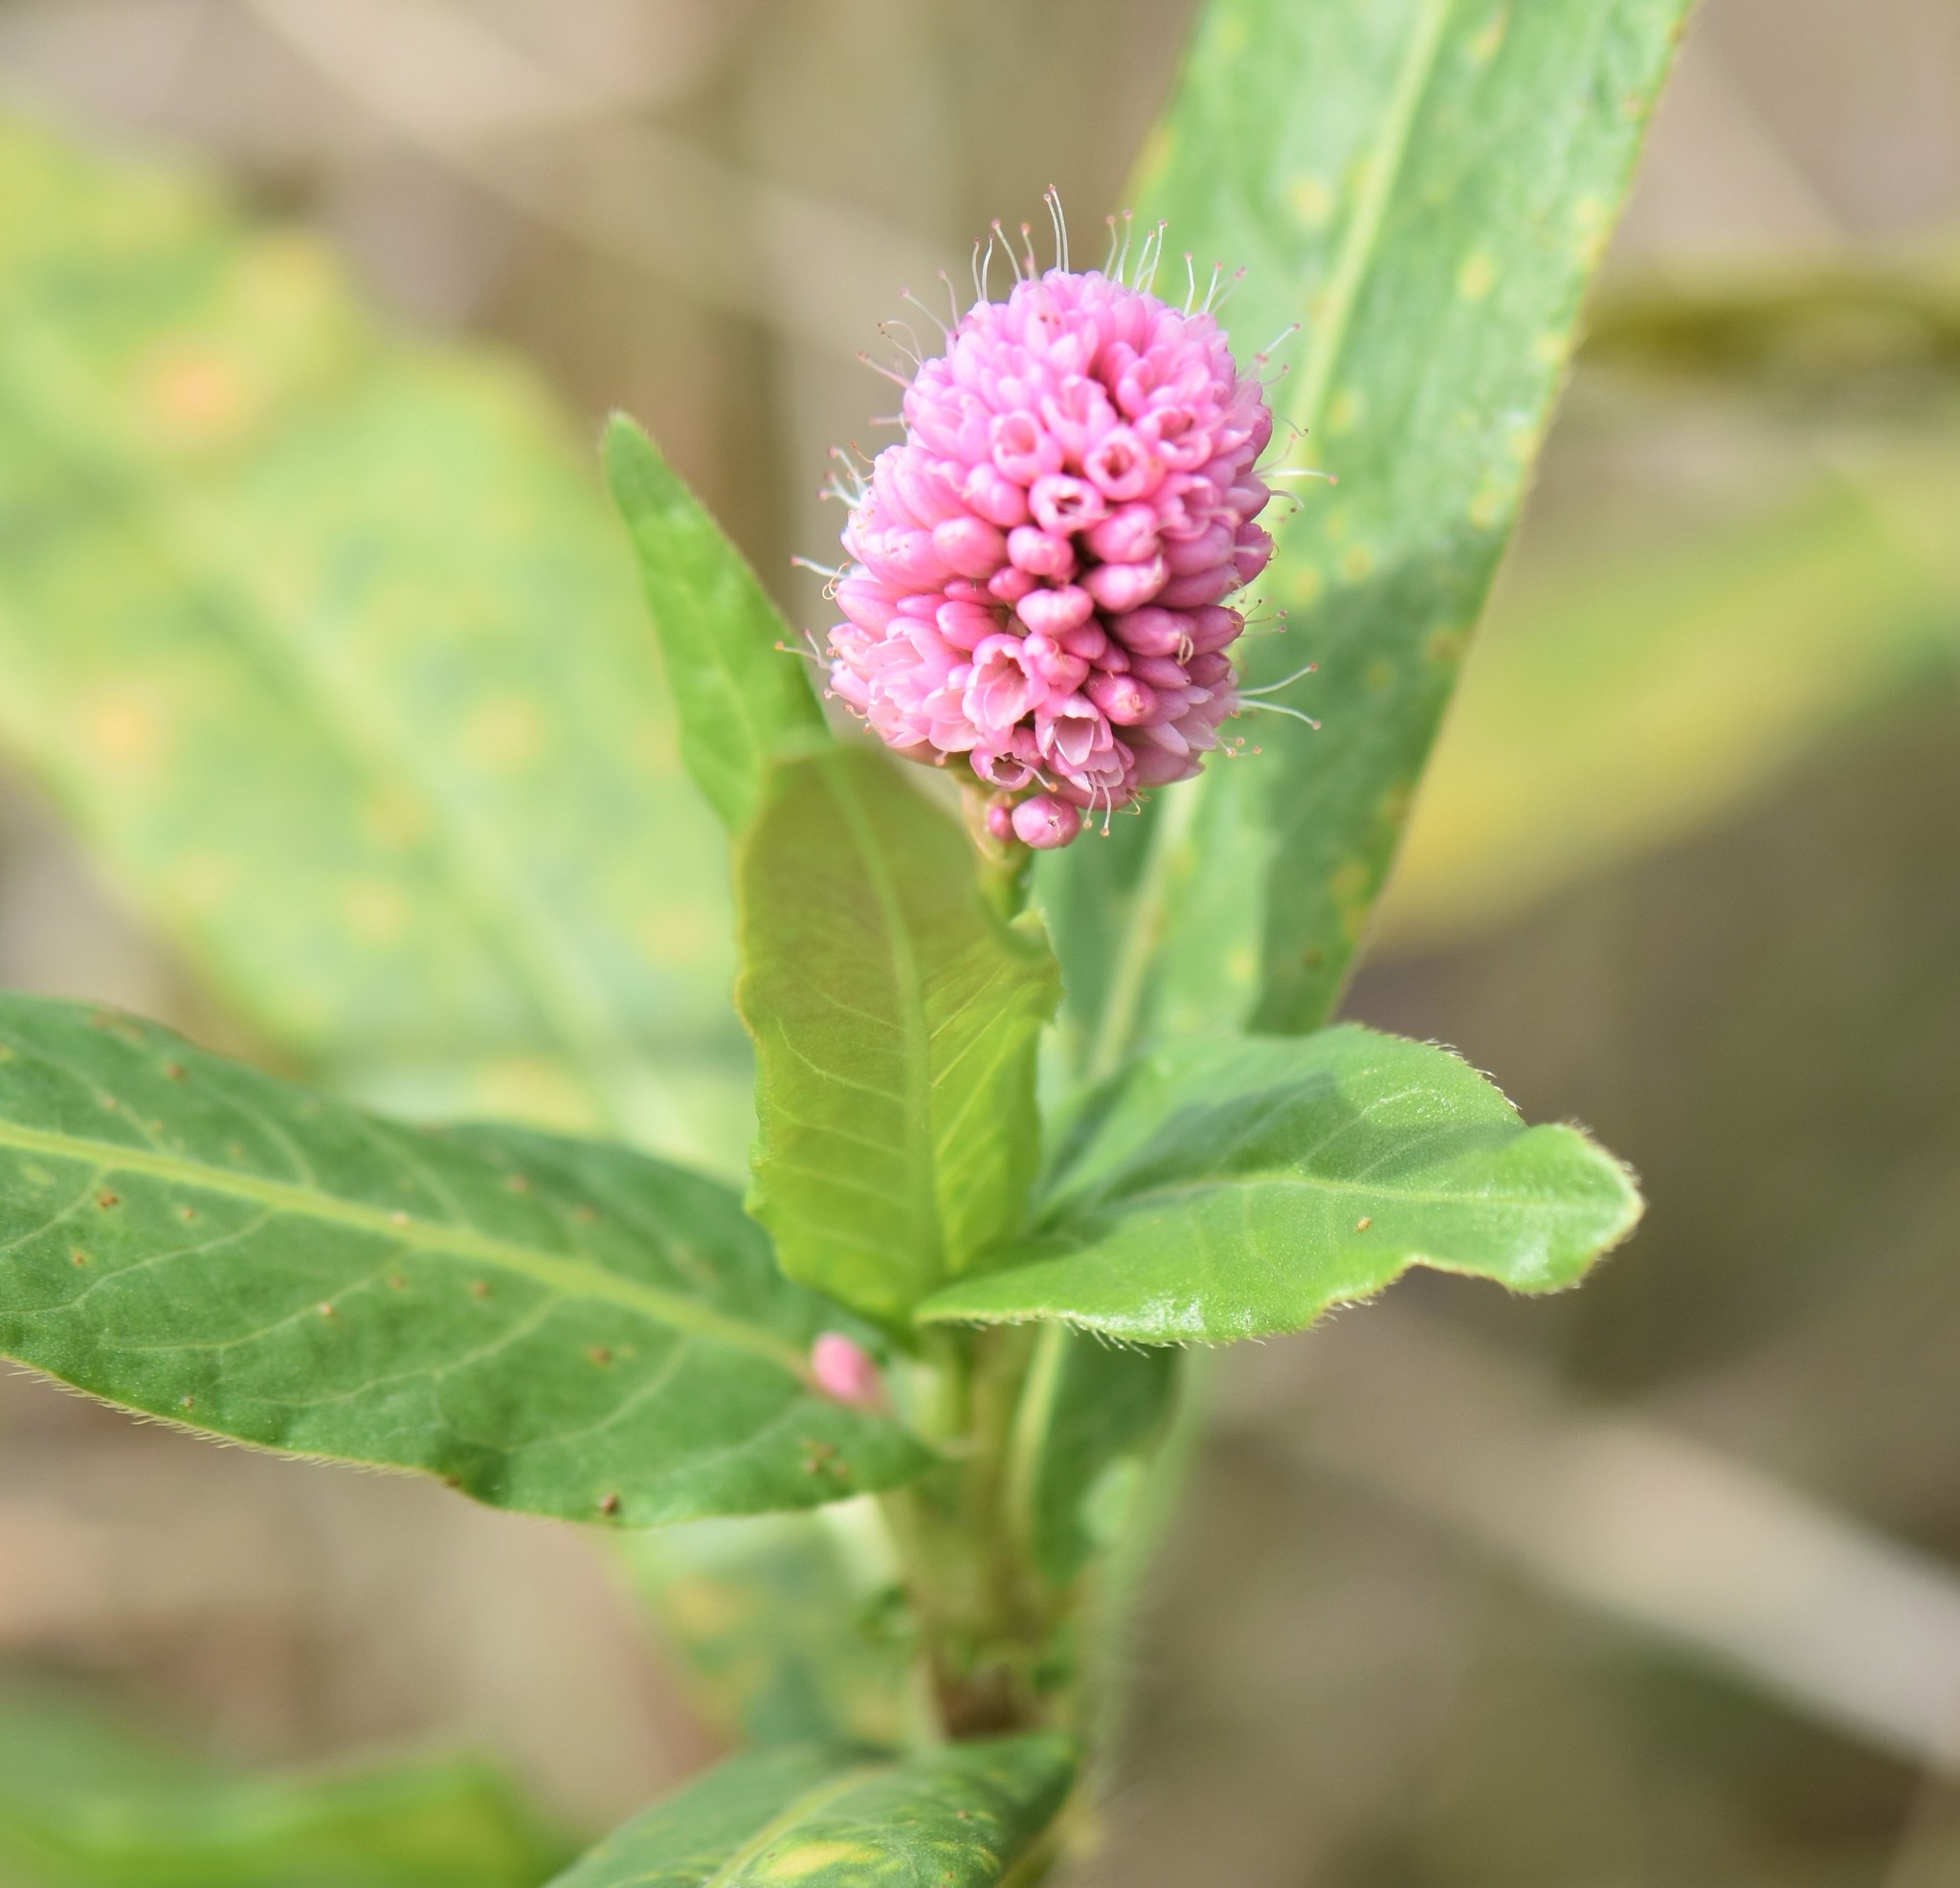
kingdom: Plantae
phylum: Tracheophyta
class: Magnoliopsida
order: Caryophyllales
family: Polygonaceae
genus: Persicaria
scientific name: Persicaria amphibia
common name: Amphibious bistort
